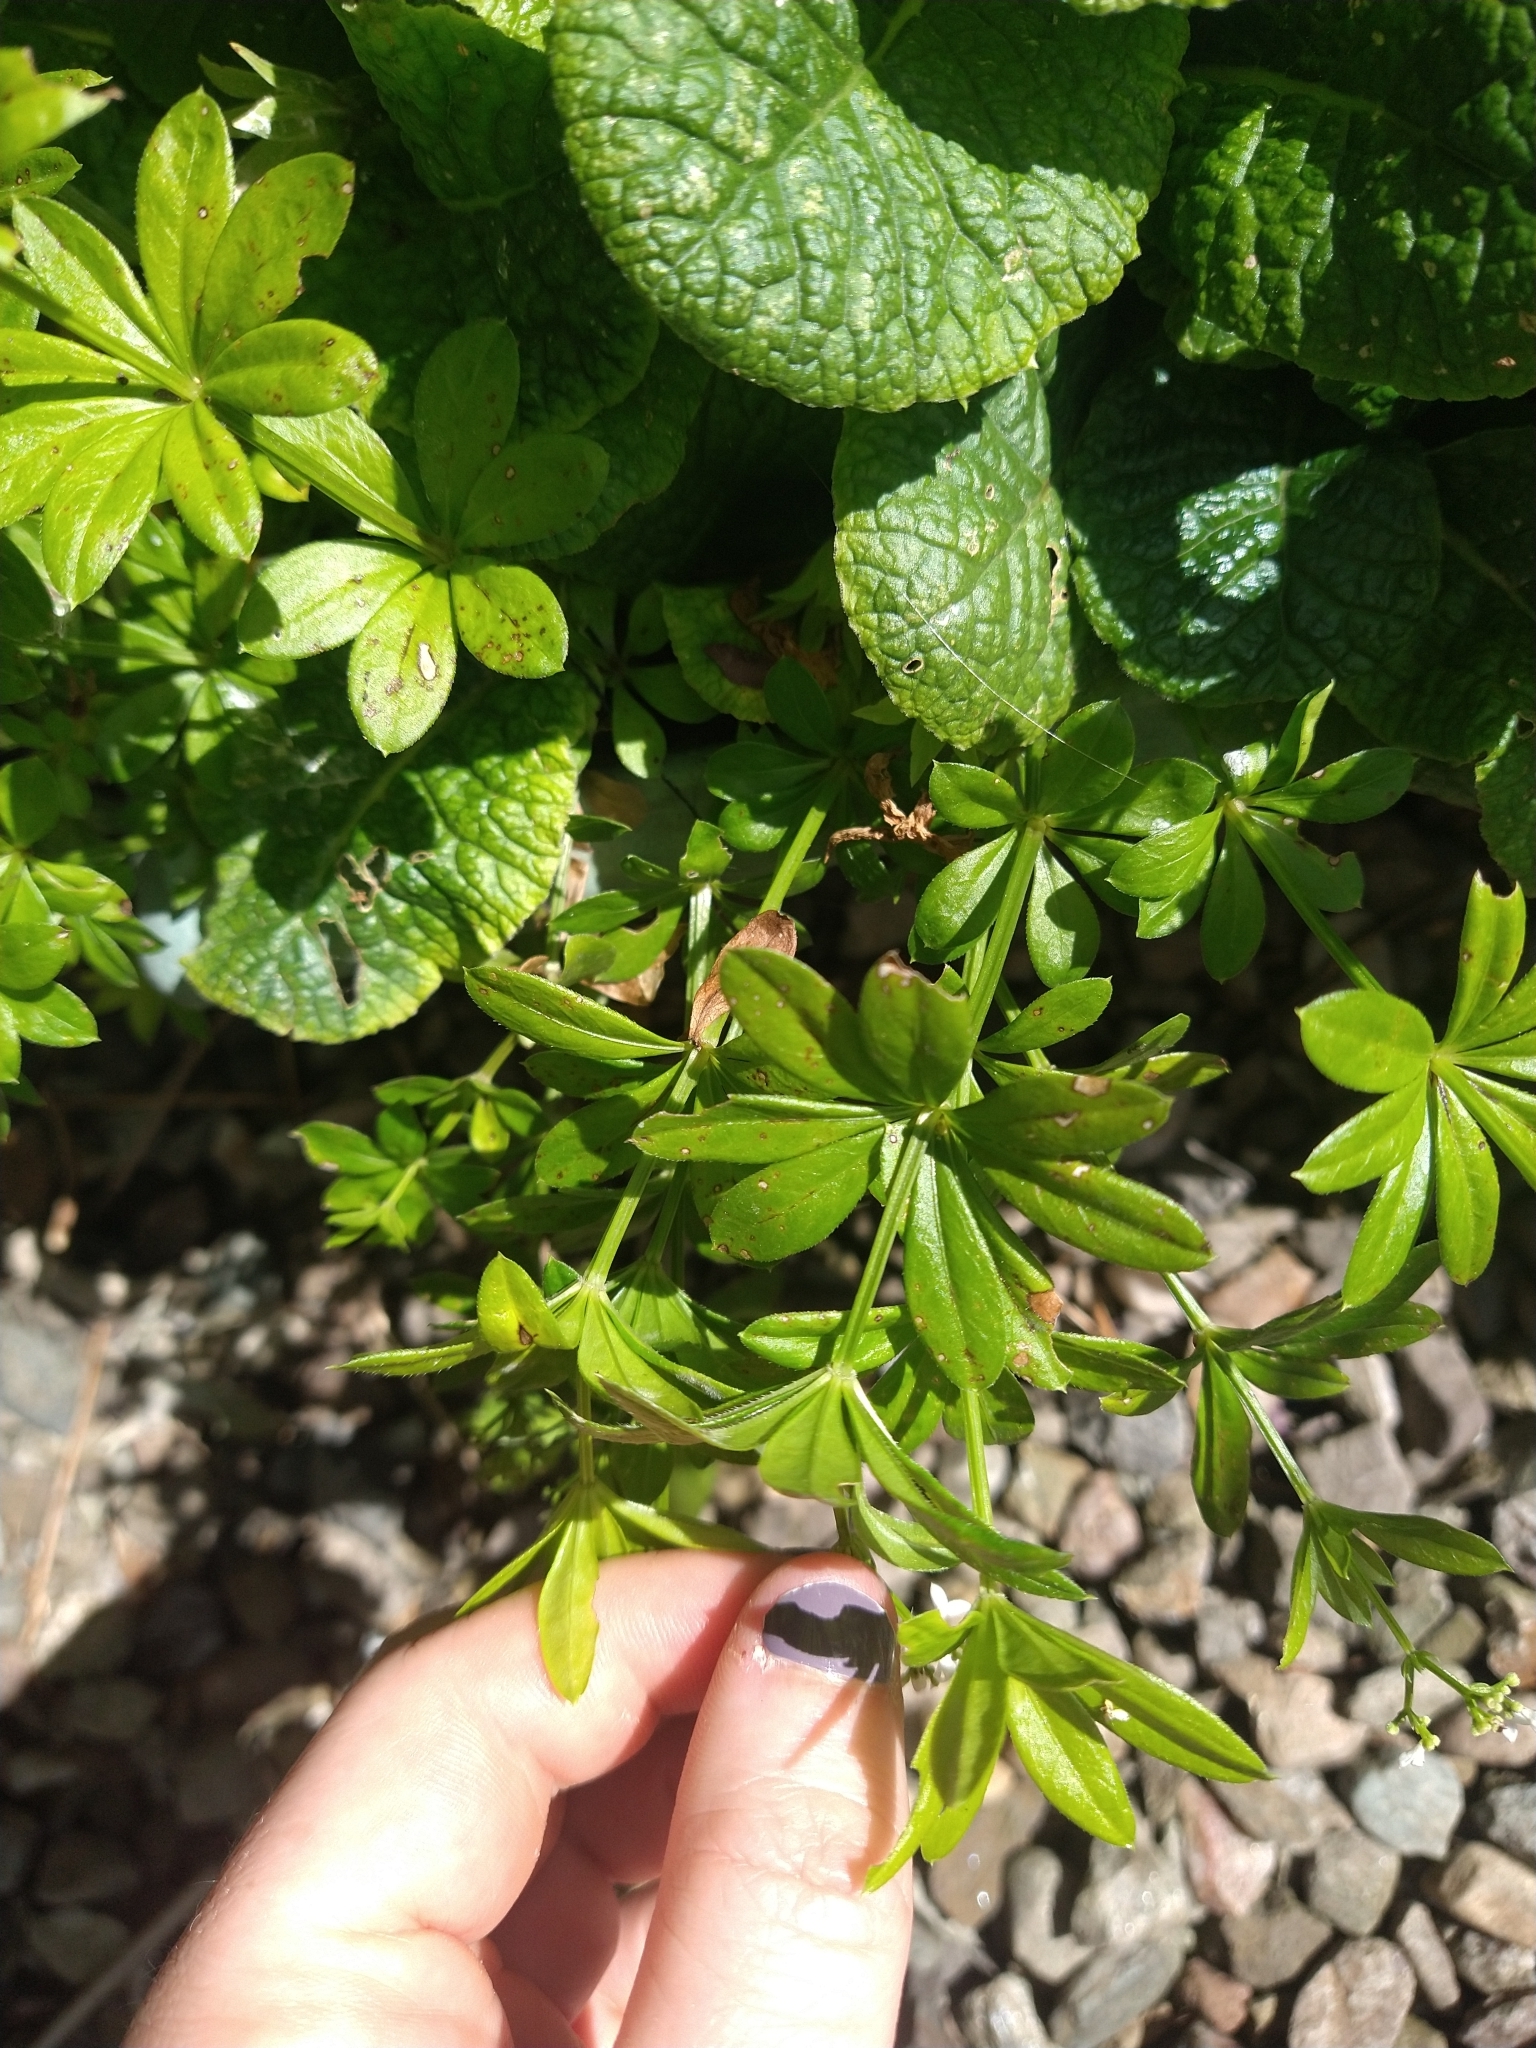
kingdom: Plantae
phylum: Tracheophyta
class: Magnoliopsida
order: Gentianales
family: Rubiaceae
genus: Galium
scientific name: Galium odoratum
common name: Sweet woodruff
